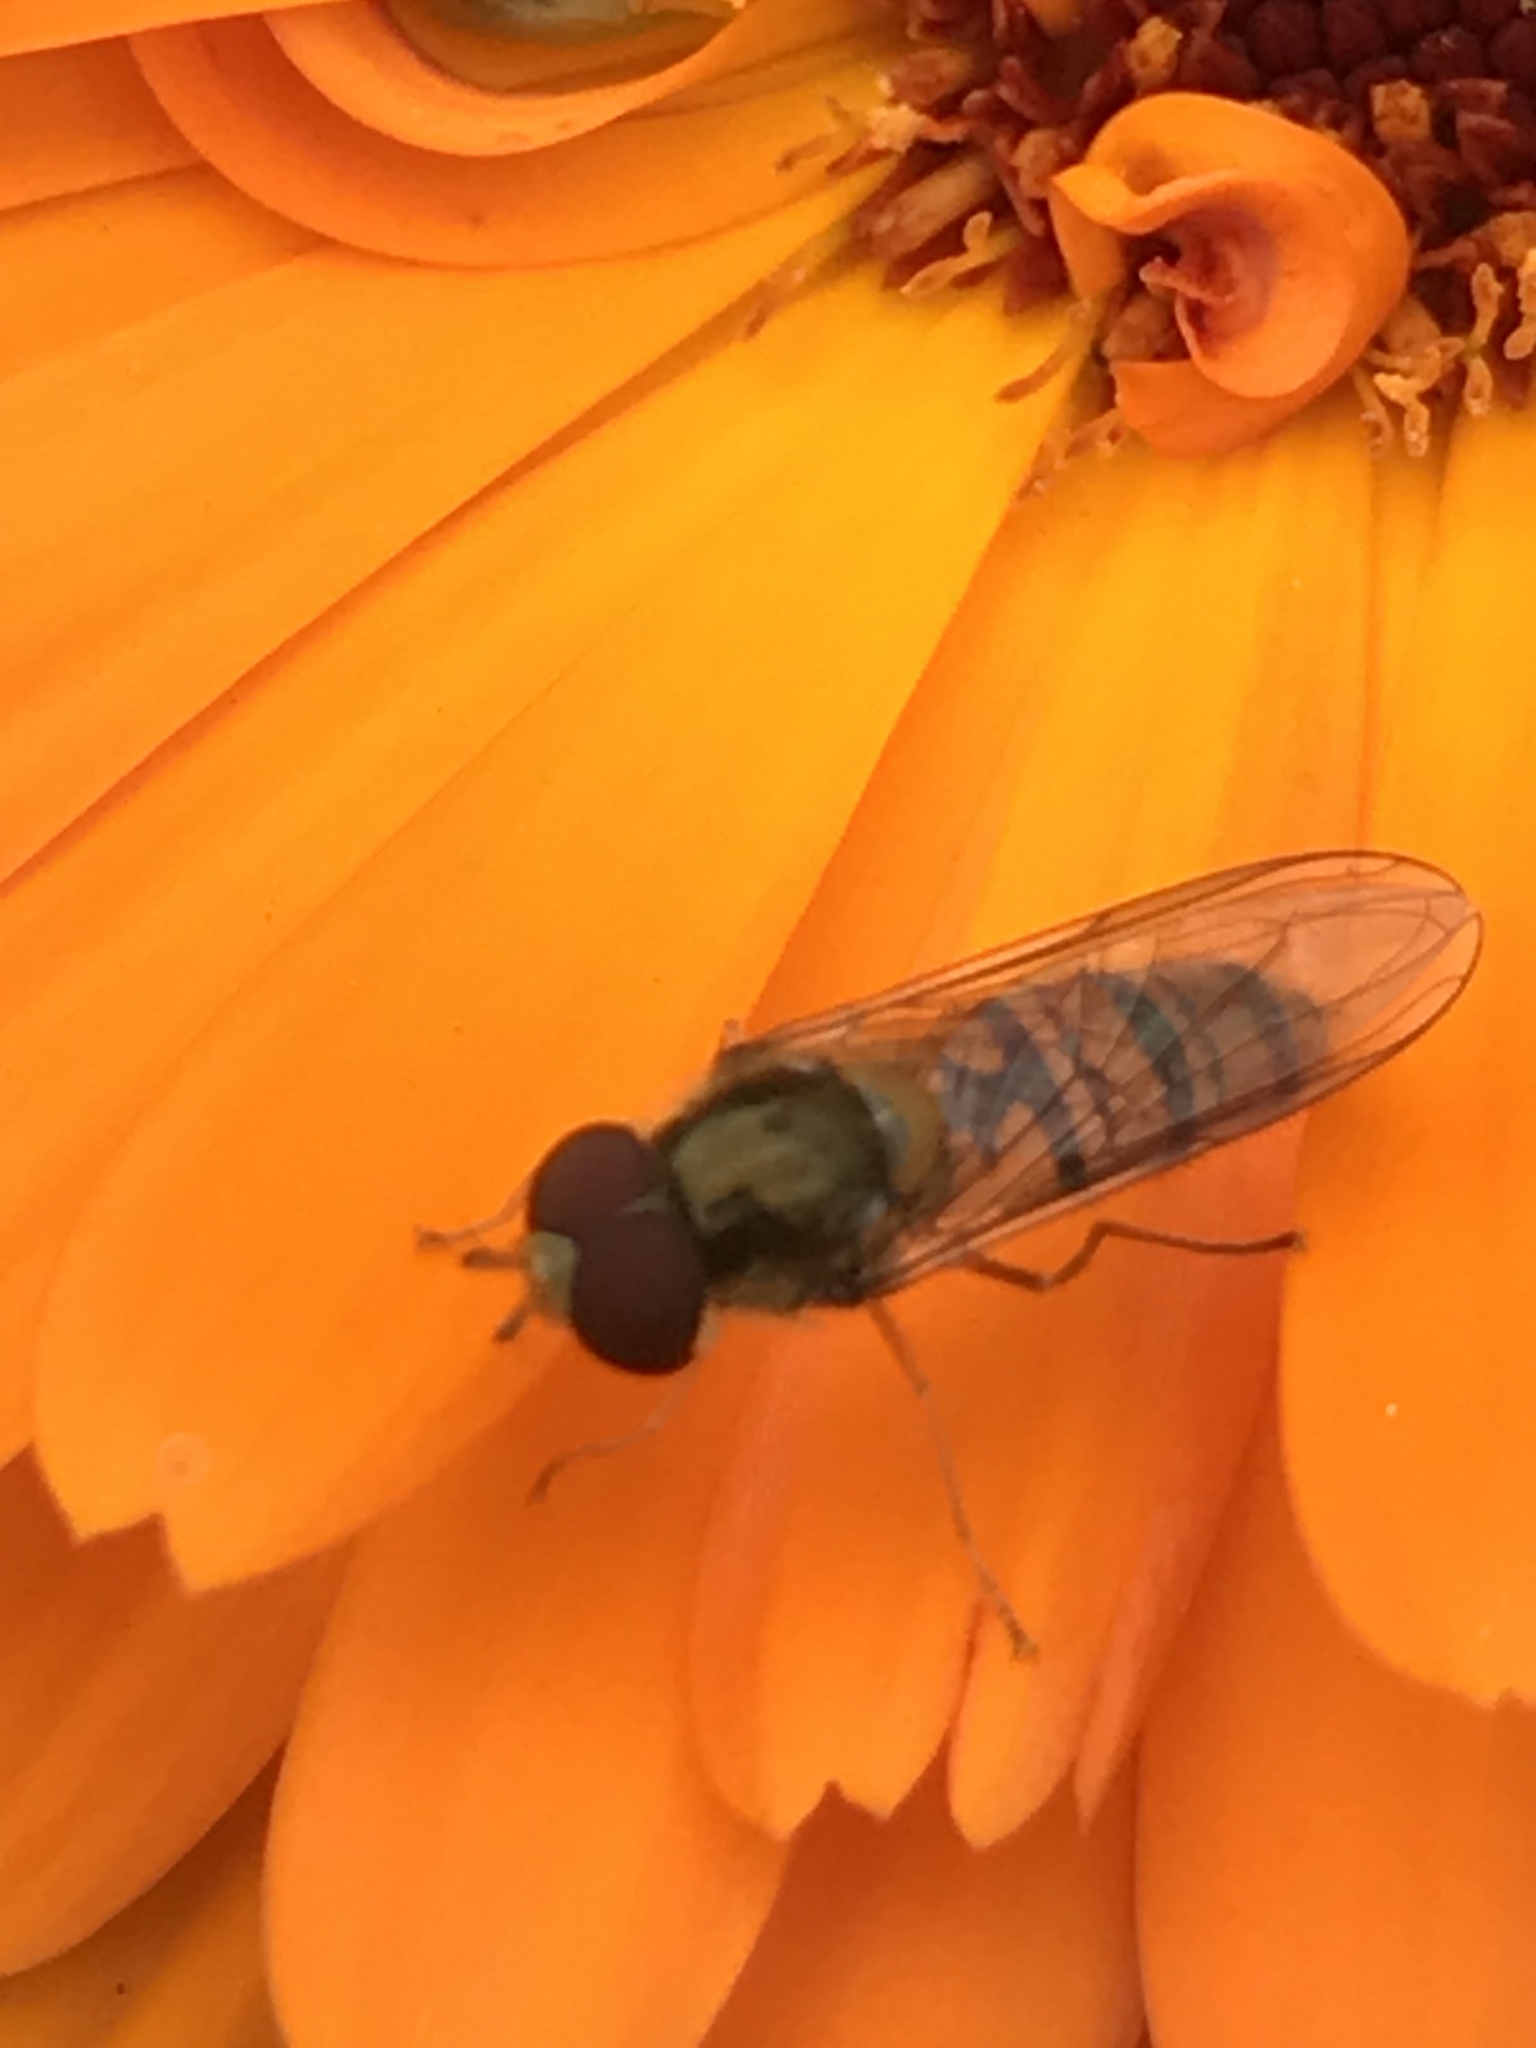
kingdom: Animalia
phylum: Arthropoda
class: Insecta
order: Diptera
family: Syrphidae
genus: Episyrphus
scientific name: Episyrphus balteatus
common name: Marmalade hoverfly
